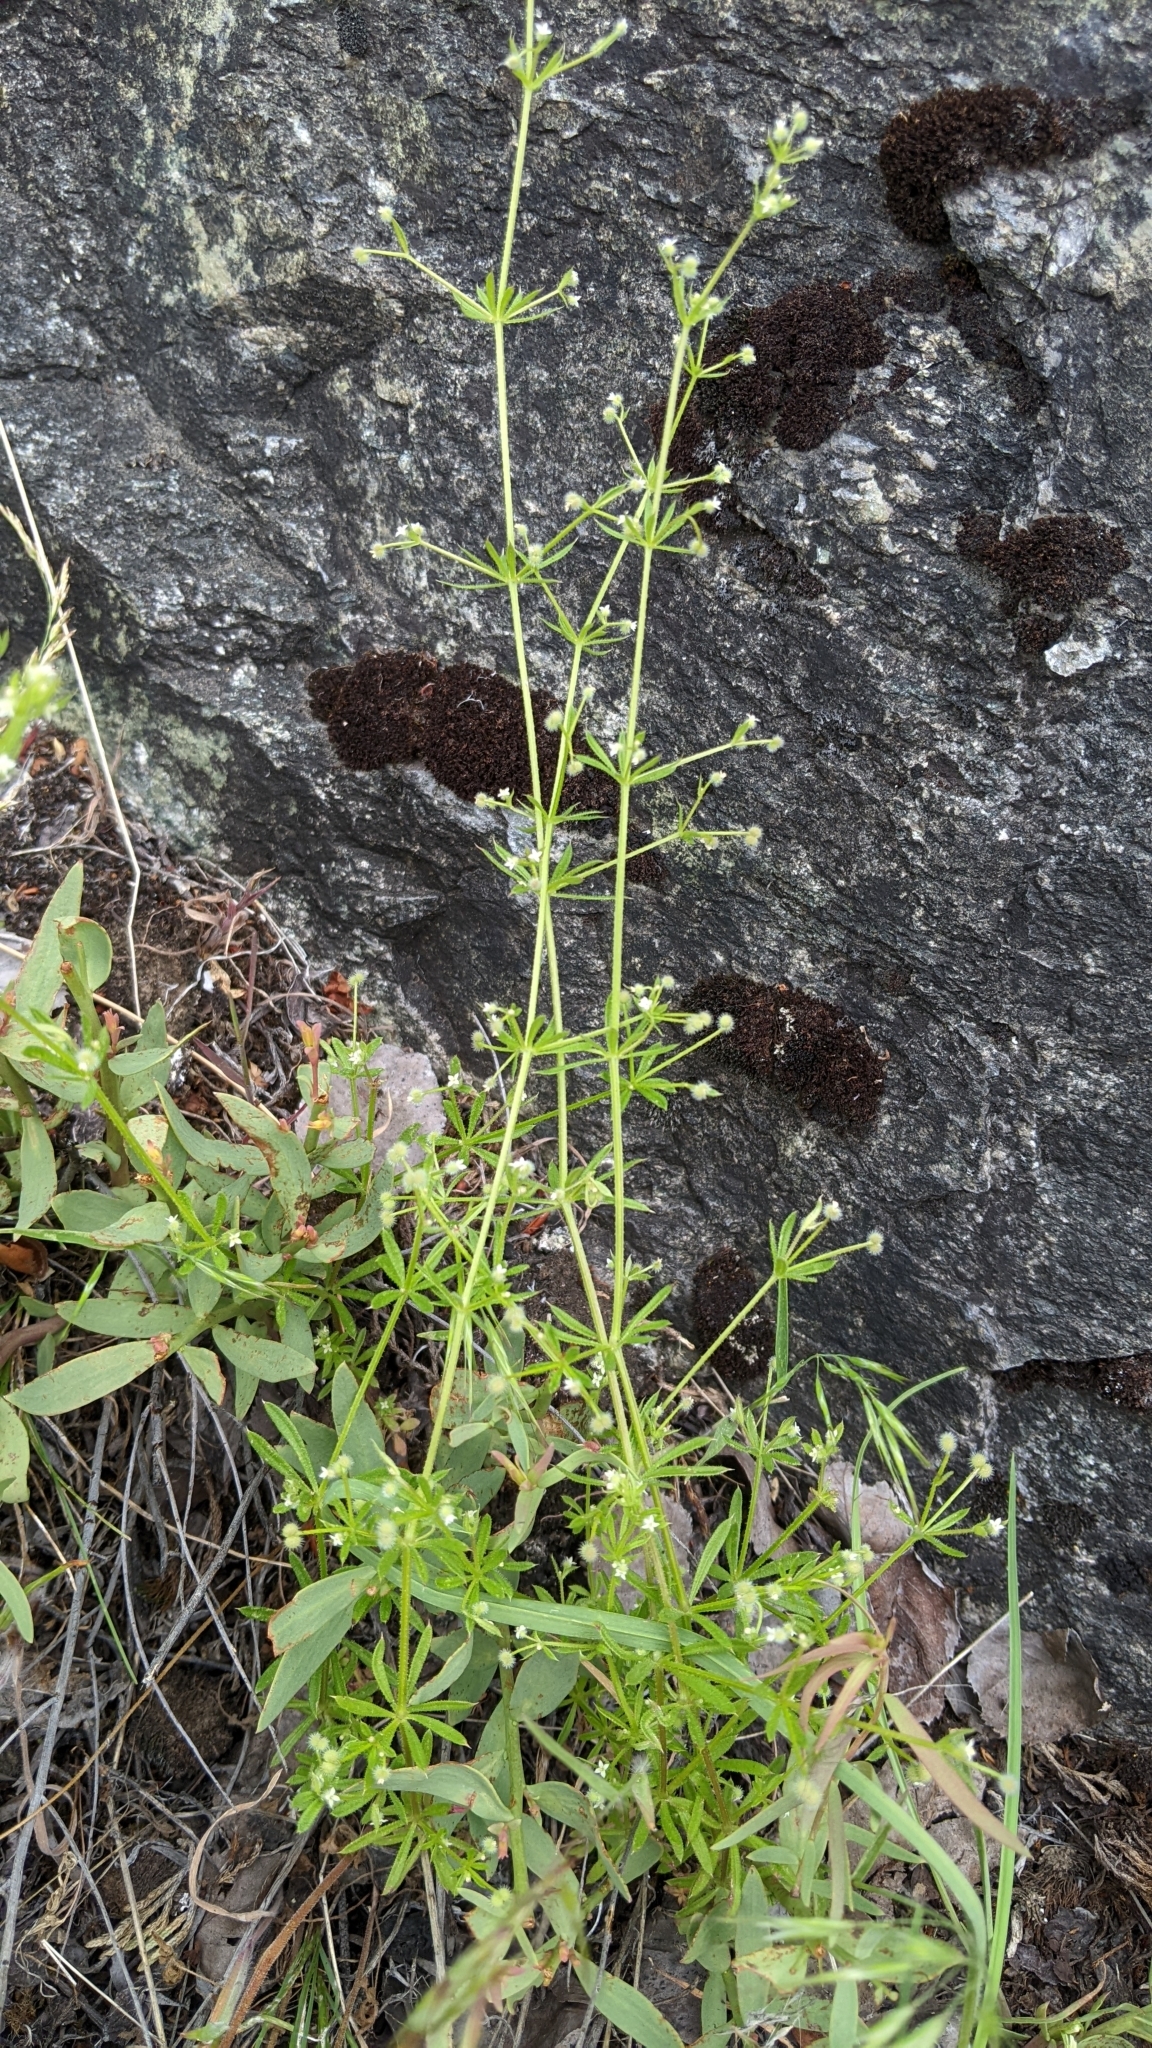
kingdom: Plantae
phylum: Tracheophyta
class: Magnoliopsida
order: Gentianales
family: Rubiaceae
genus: Galium
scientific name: Galium aparine
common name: Cleavers
